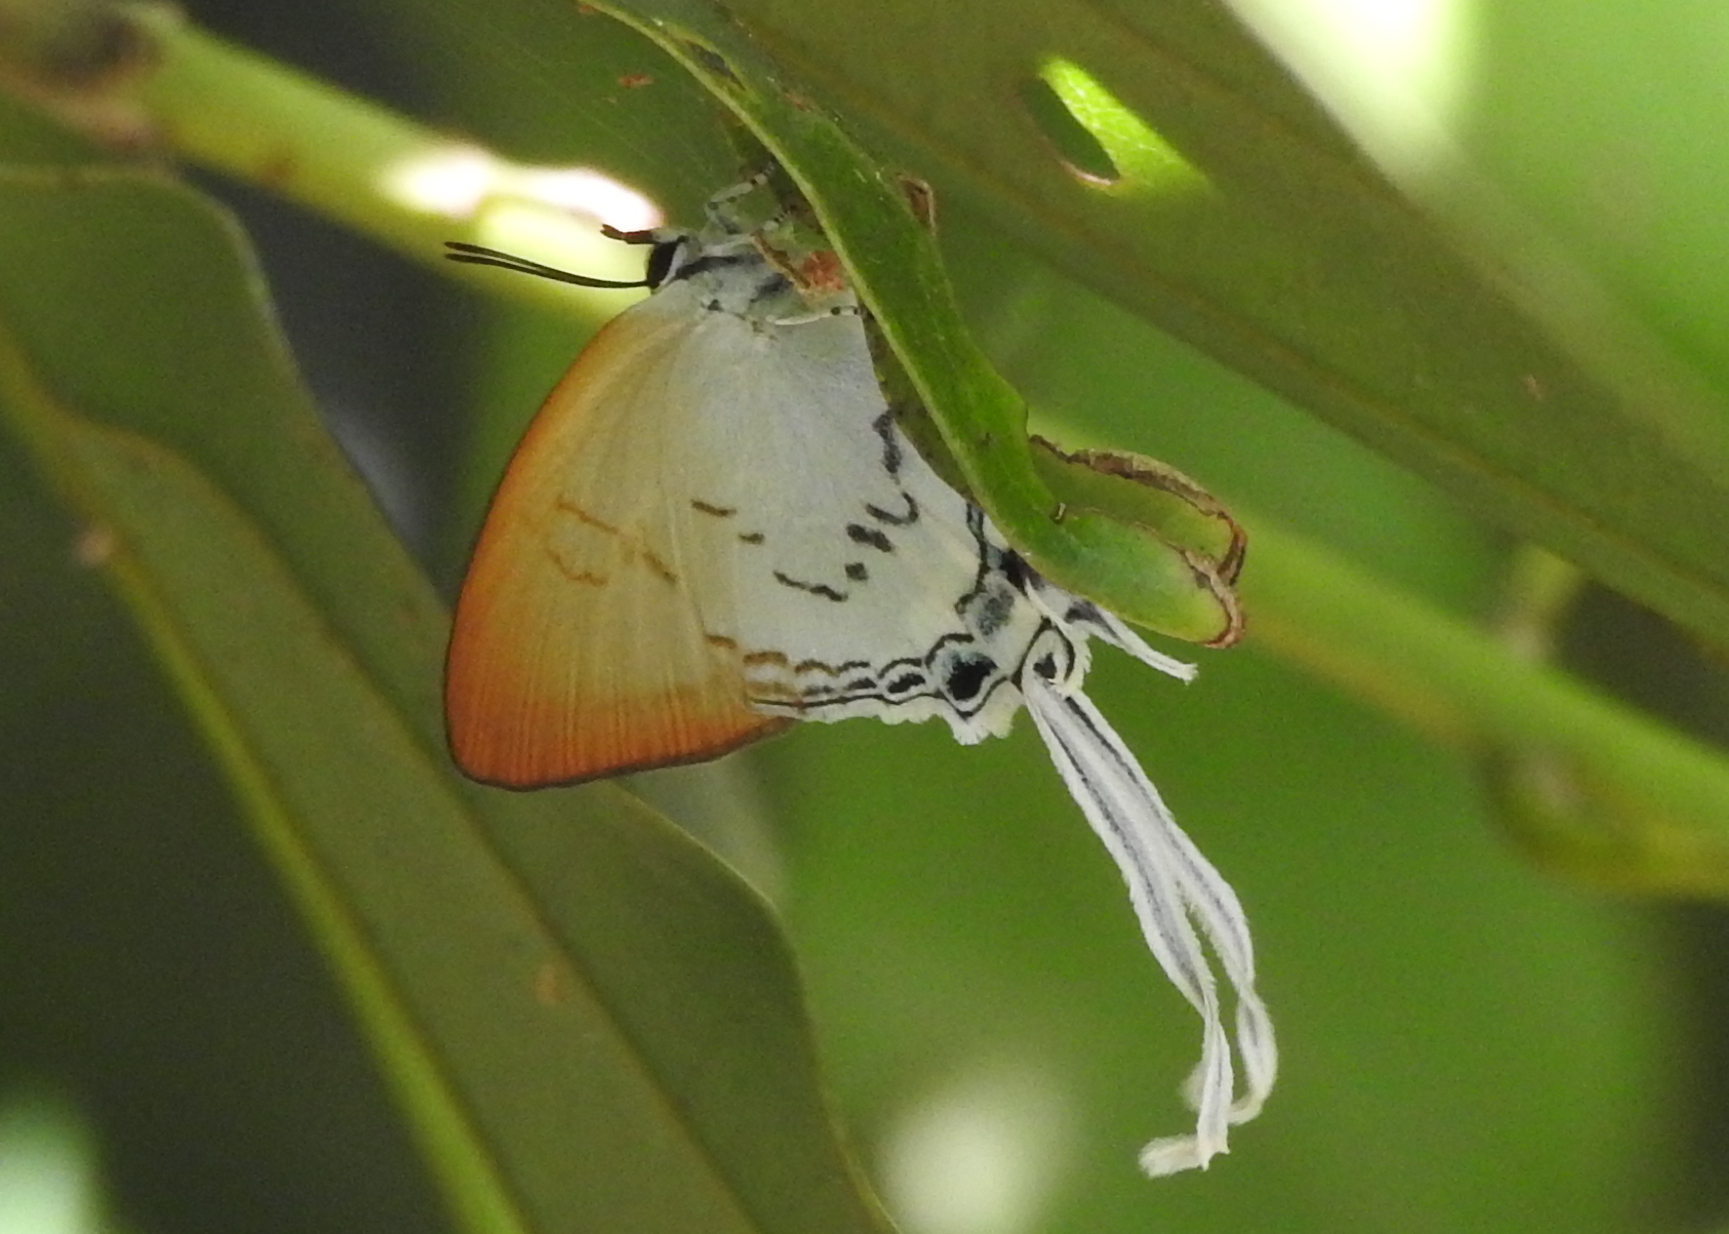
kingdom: Animalia
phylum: Arthropoda
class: Insecta
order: Lepidoptera
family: Lycaenidae
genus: Cheritra
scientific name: Cheritra freja
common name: Common imperial
